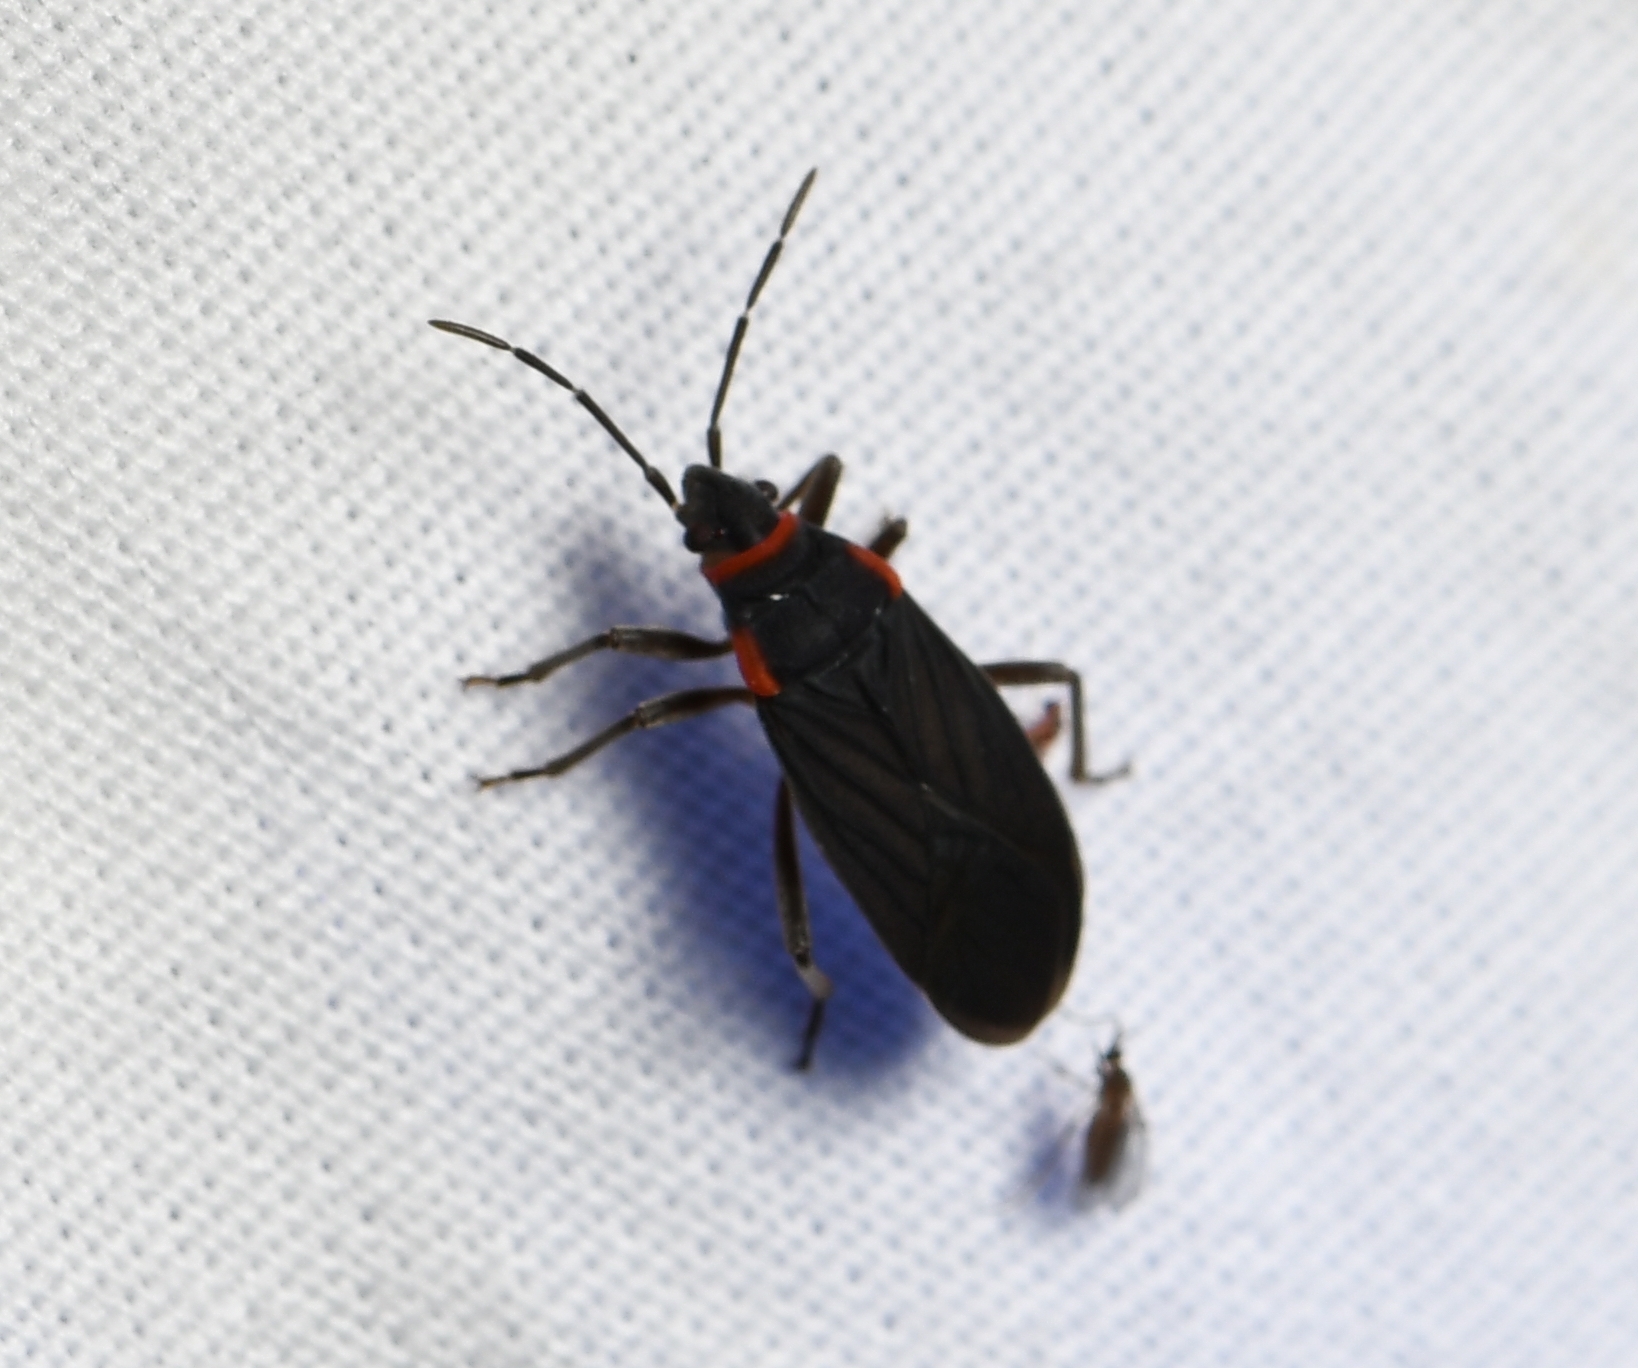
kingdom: Animalia
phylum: Arthropoda
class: Insecta
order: Hemiptera
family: Lygaeidae
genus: Melacoryphus
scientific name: Melacoryphus rubicollis
